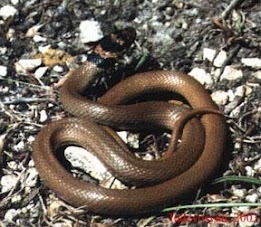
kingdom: Animalia
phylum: Chordata
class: Squamata
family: Colubridae
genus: Eirenis
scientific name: Eirenis modestus
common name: Ring-headed dwarf snake
